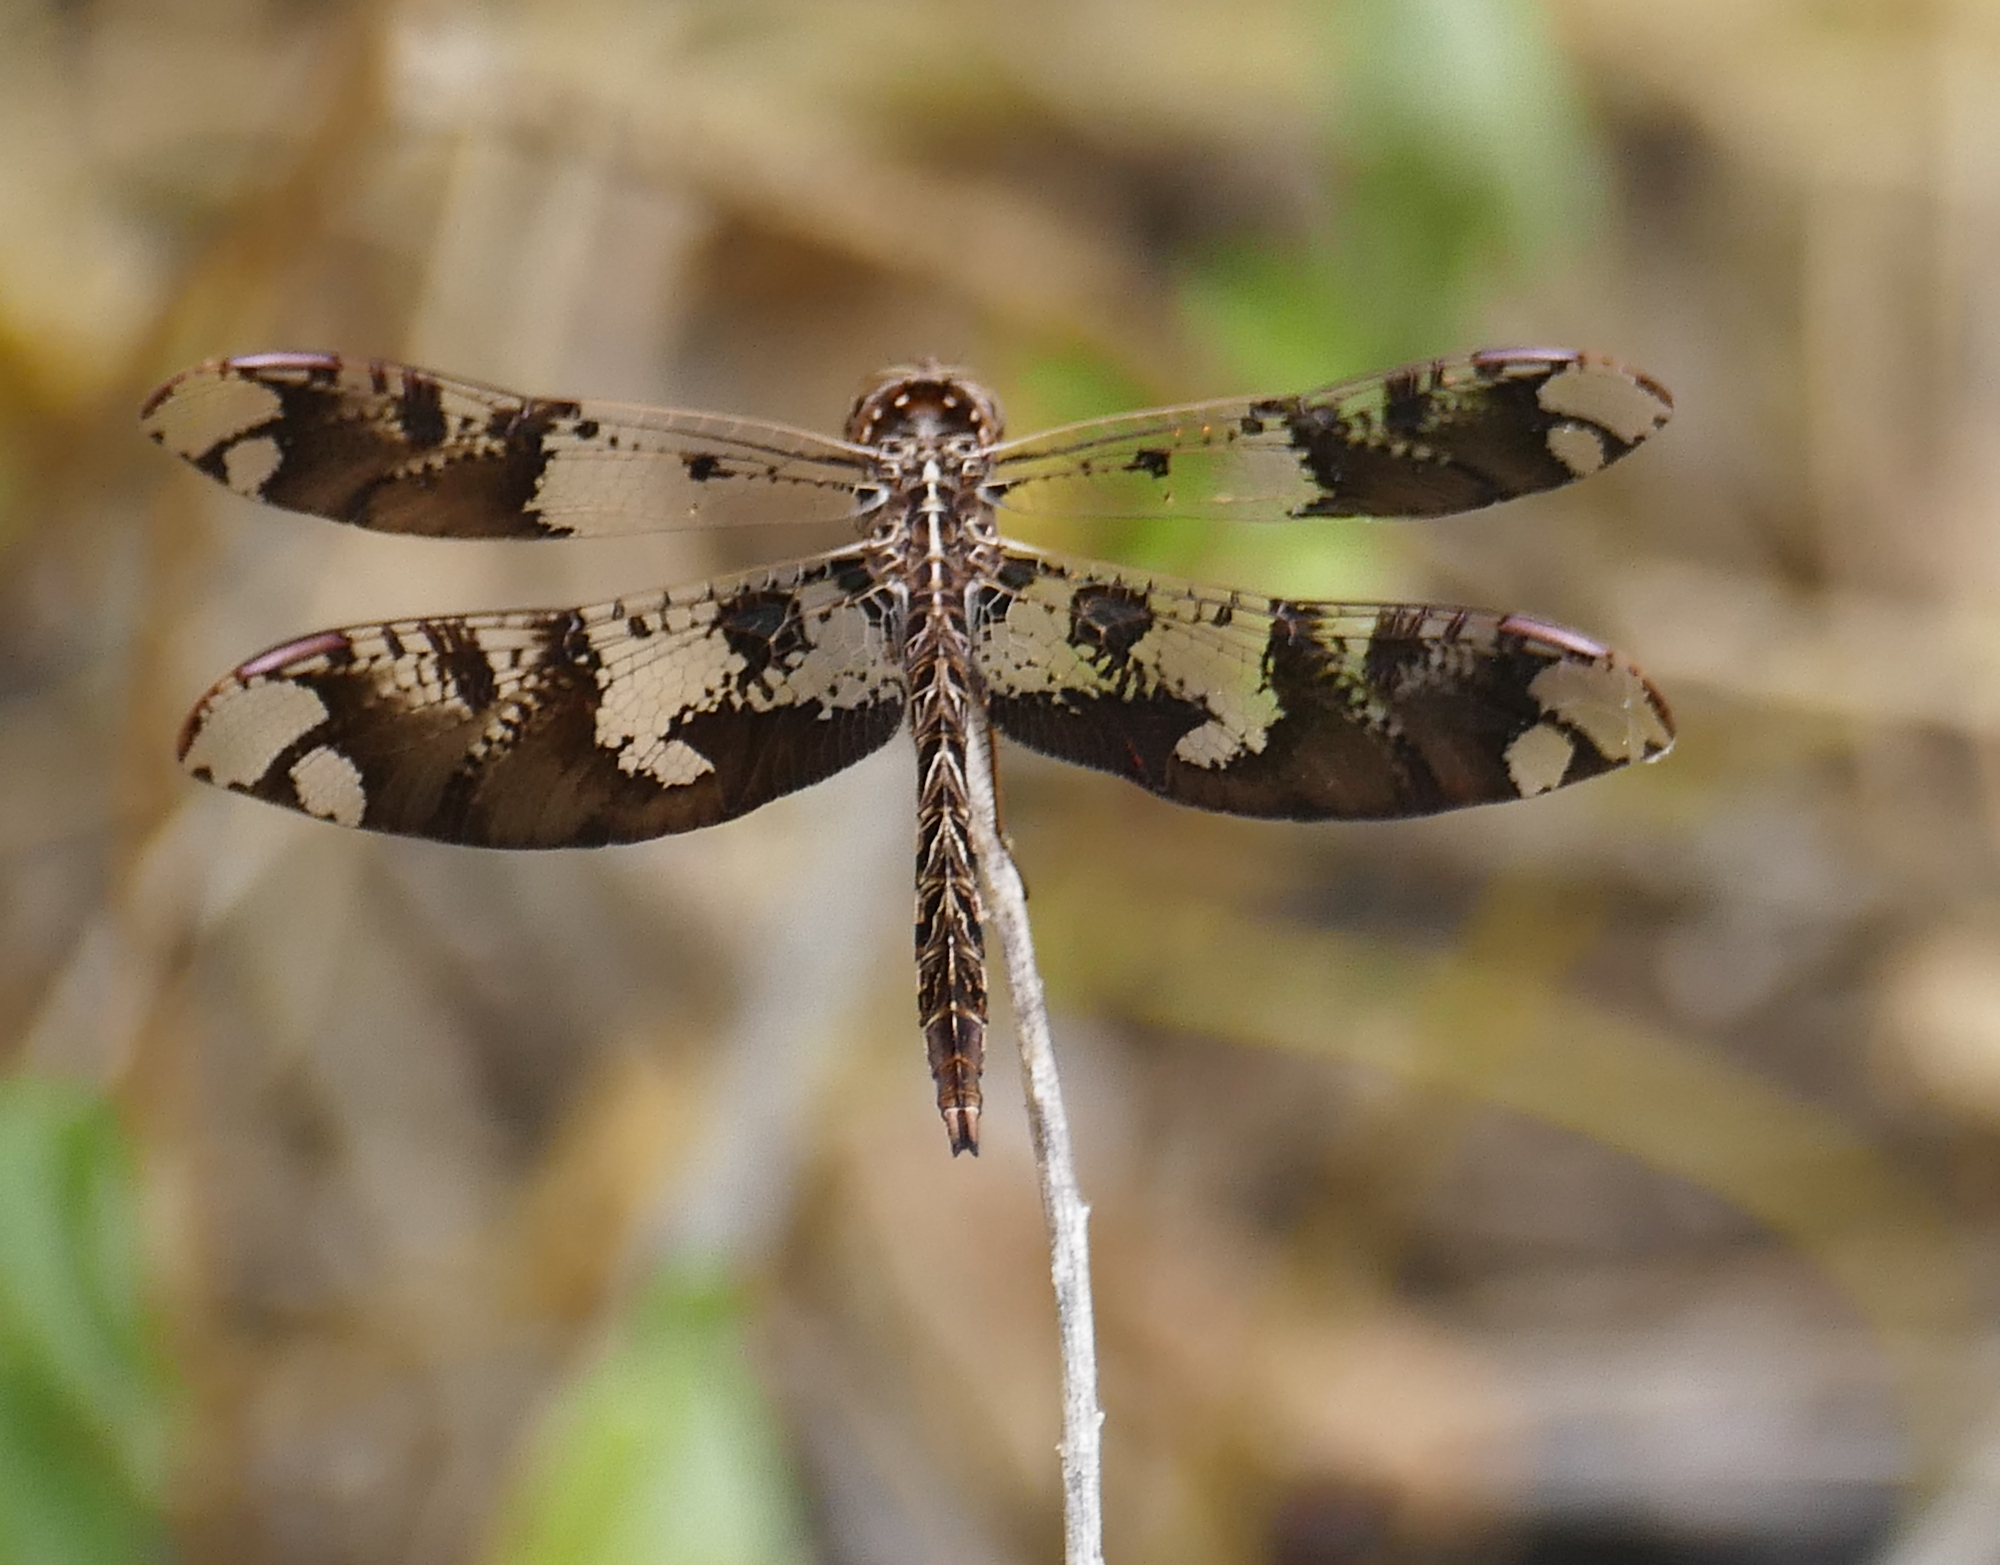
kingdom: Animalia
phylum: Arthropoda
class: Insecta
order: Odonata
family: Libellulidae
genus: Pseudoleon
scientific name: Pseudoleon superbus
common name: Filigree skimmer
